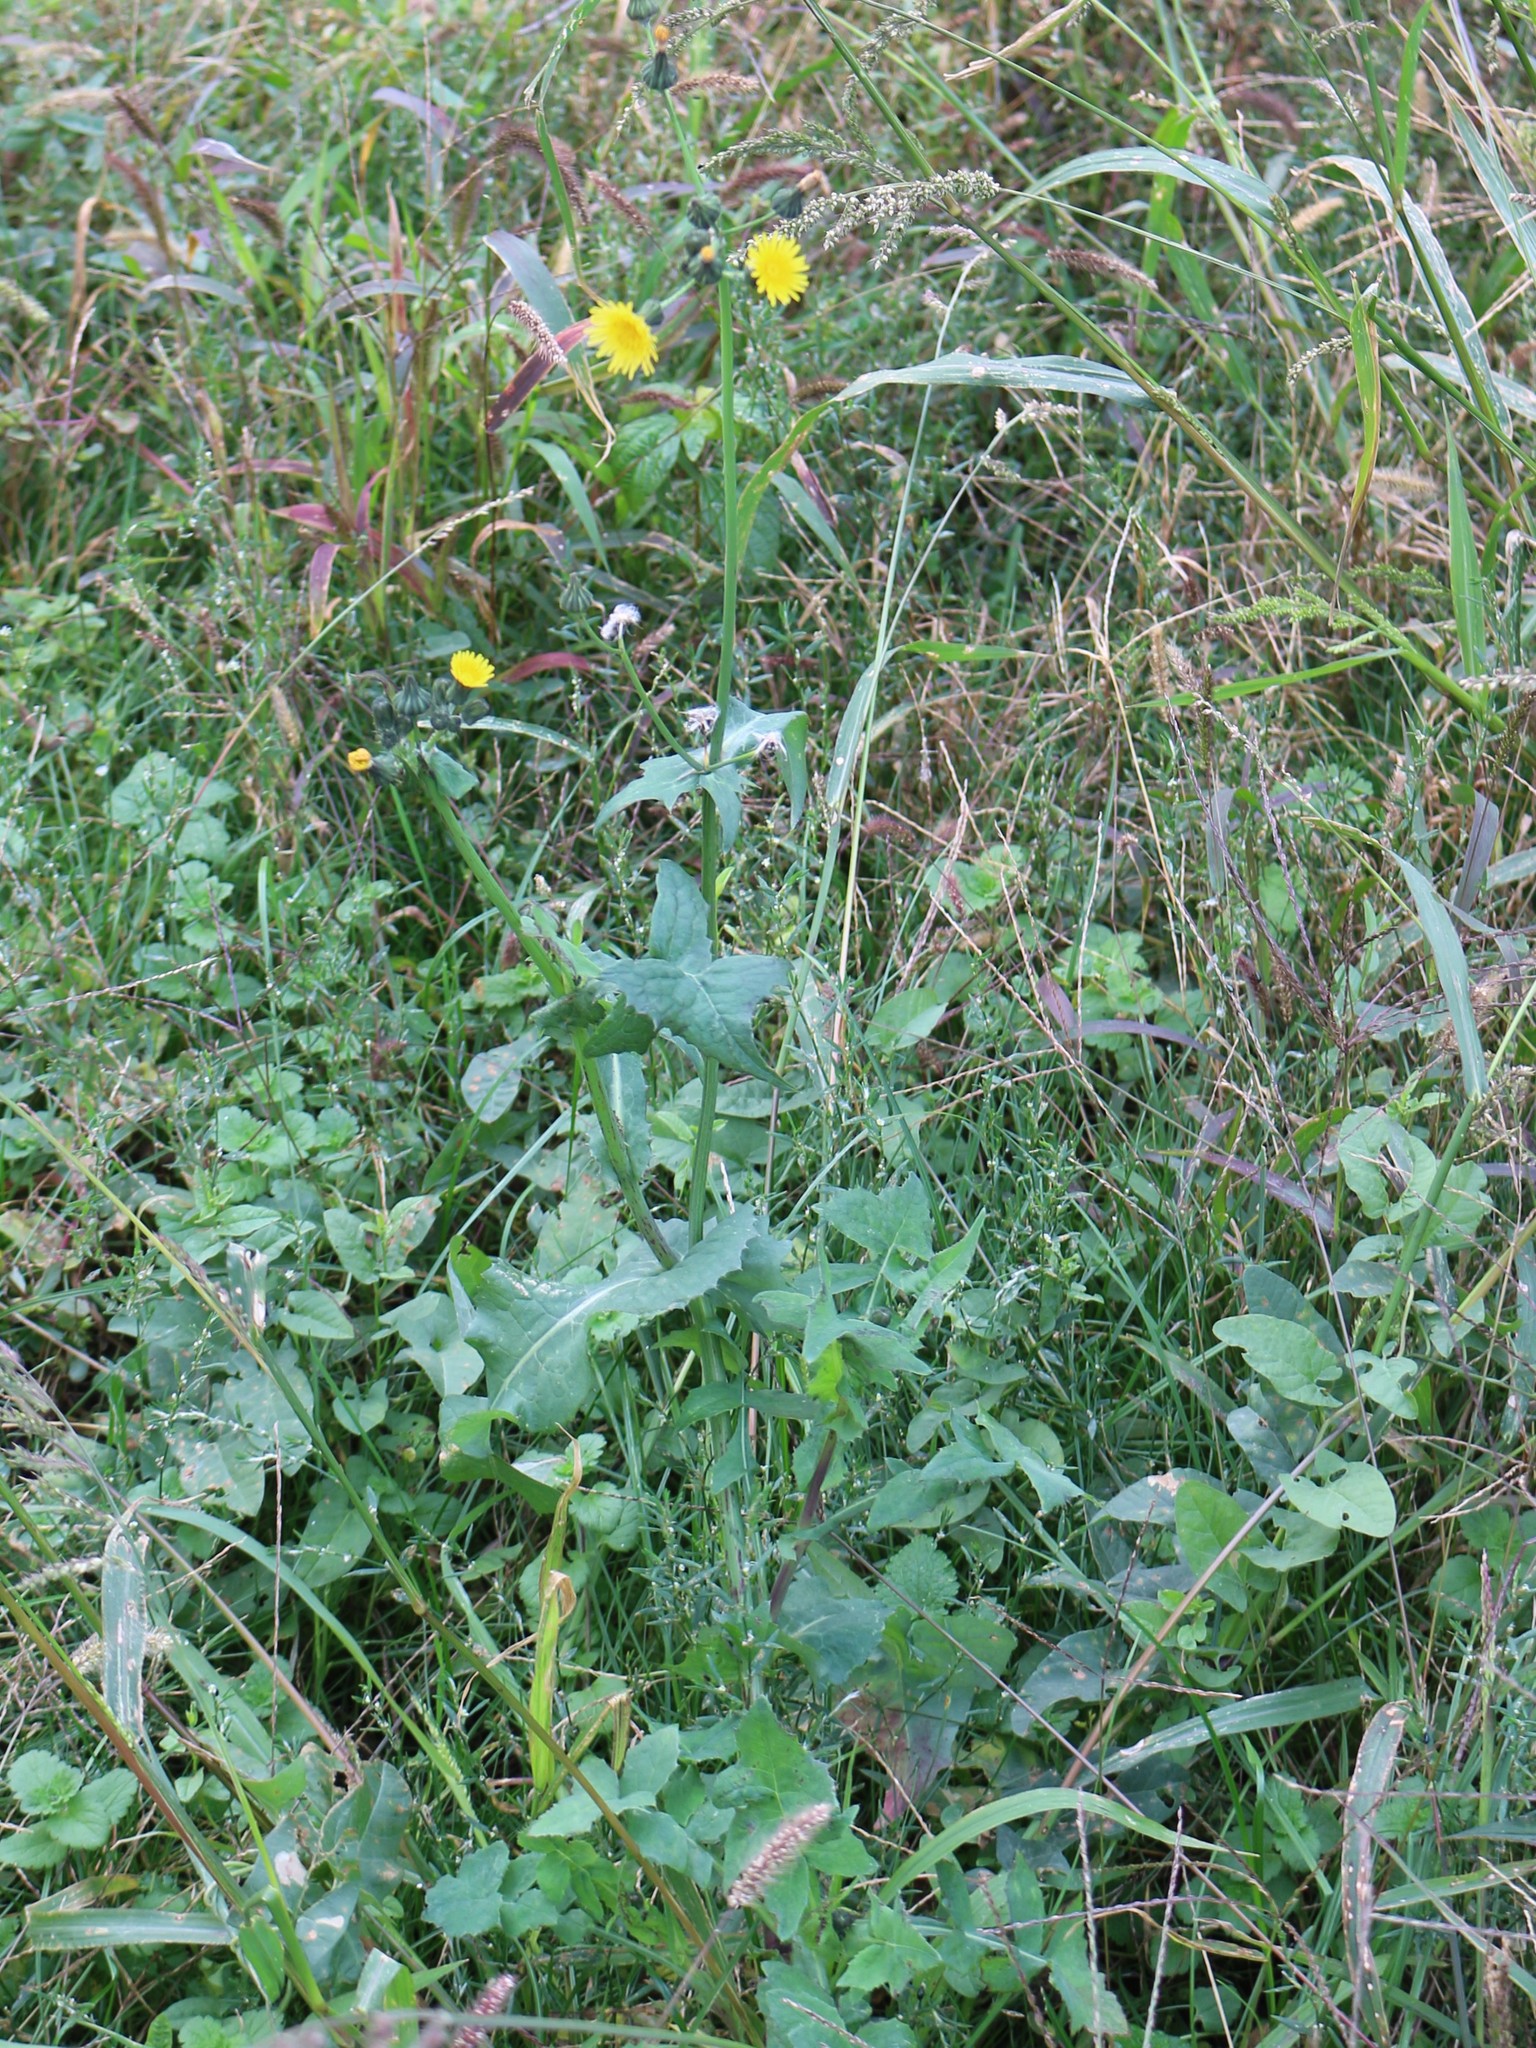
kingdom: Plantae
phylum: Tracheophyta
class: Magnoliopsida
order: Asterales
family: Asteraceae
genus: Sonchus
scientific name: Sonchus oleraceus
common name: Common sowthistle
